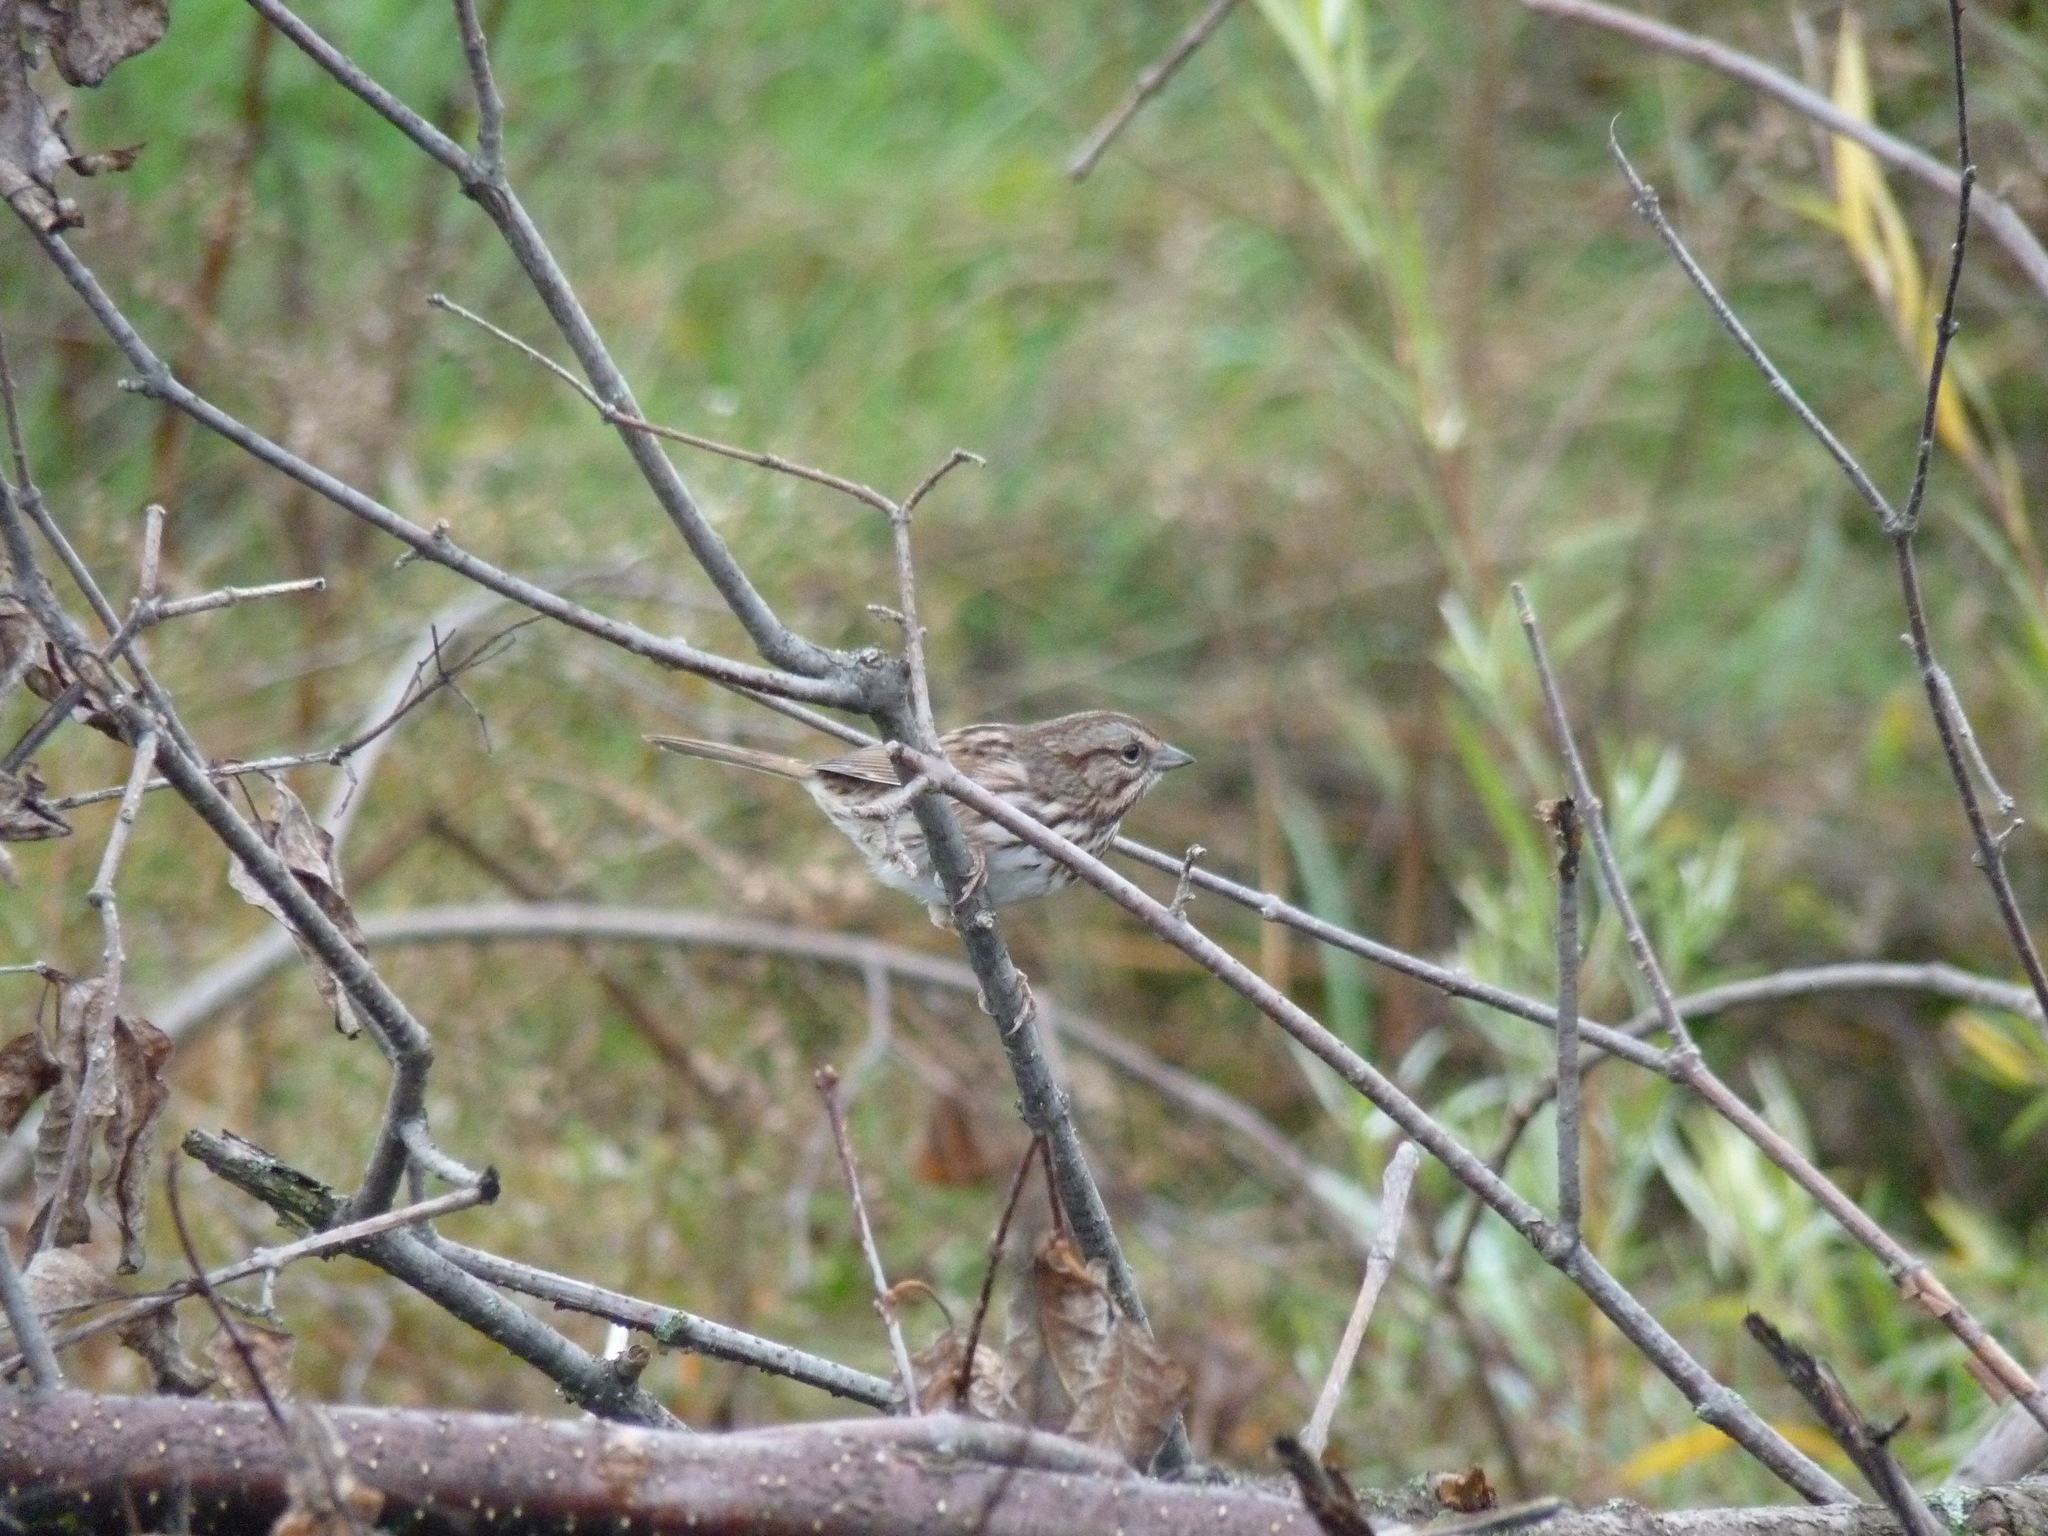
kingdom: Animalia
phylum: Chordata
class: Aves
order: Passeriformes
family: Passerellidae
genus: Melospiza
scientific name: Melospiza melodia
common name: Song sparrow
